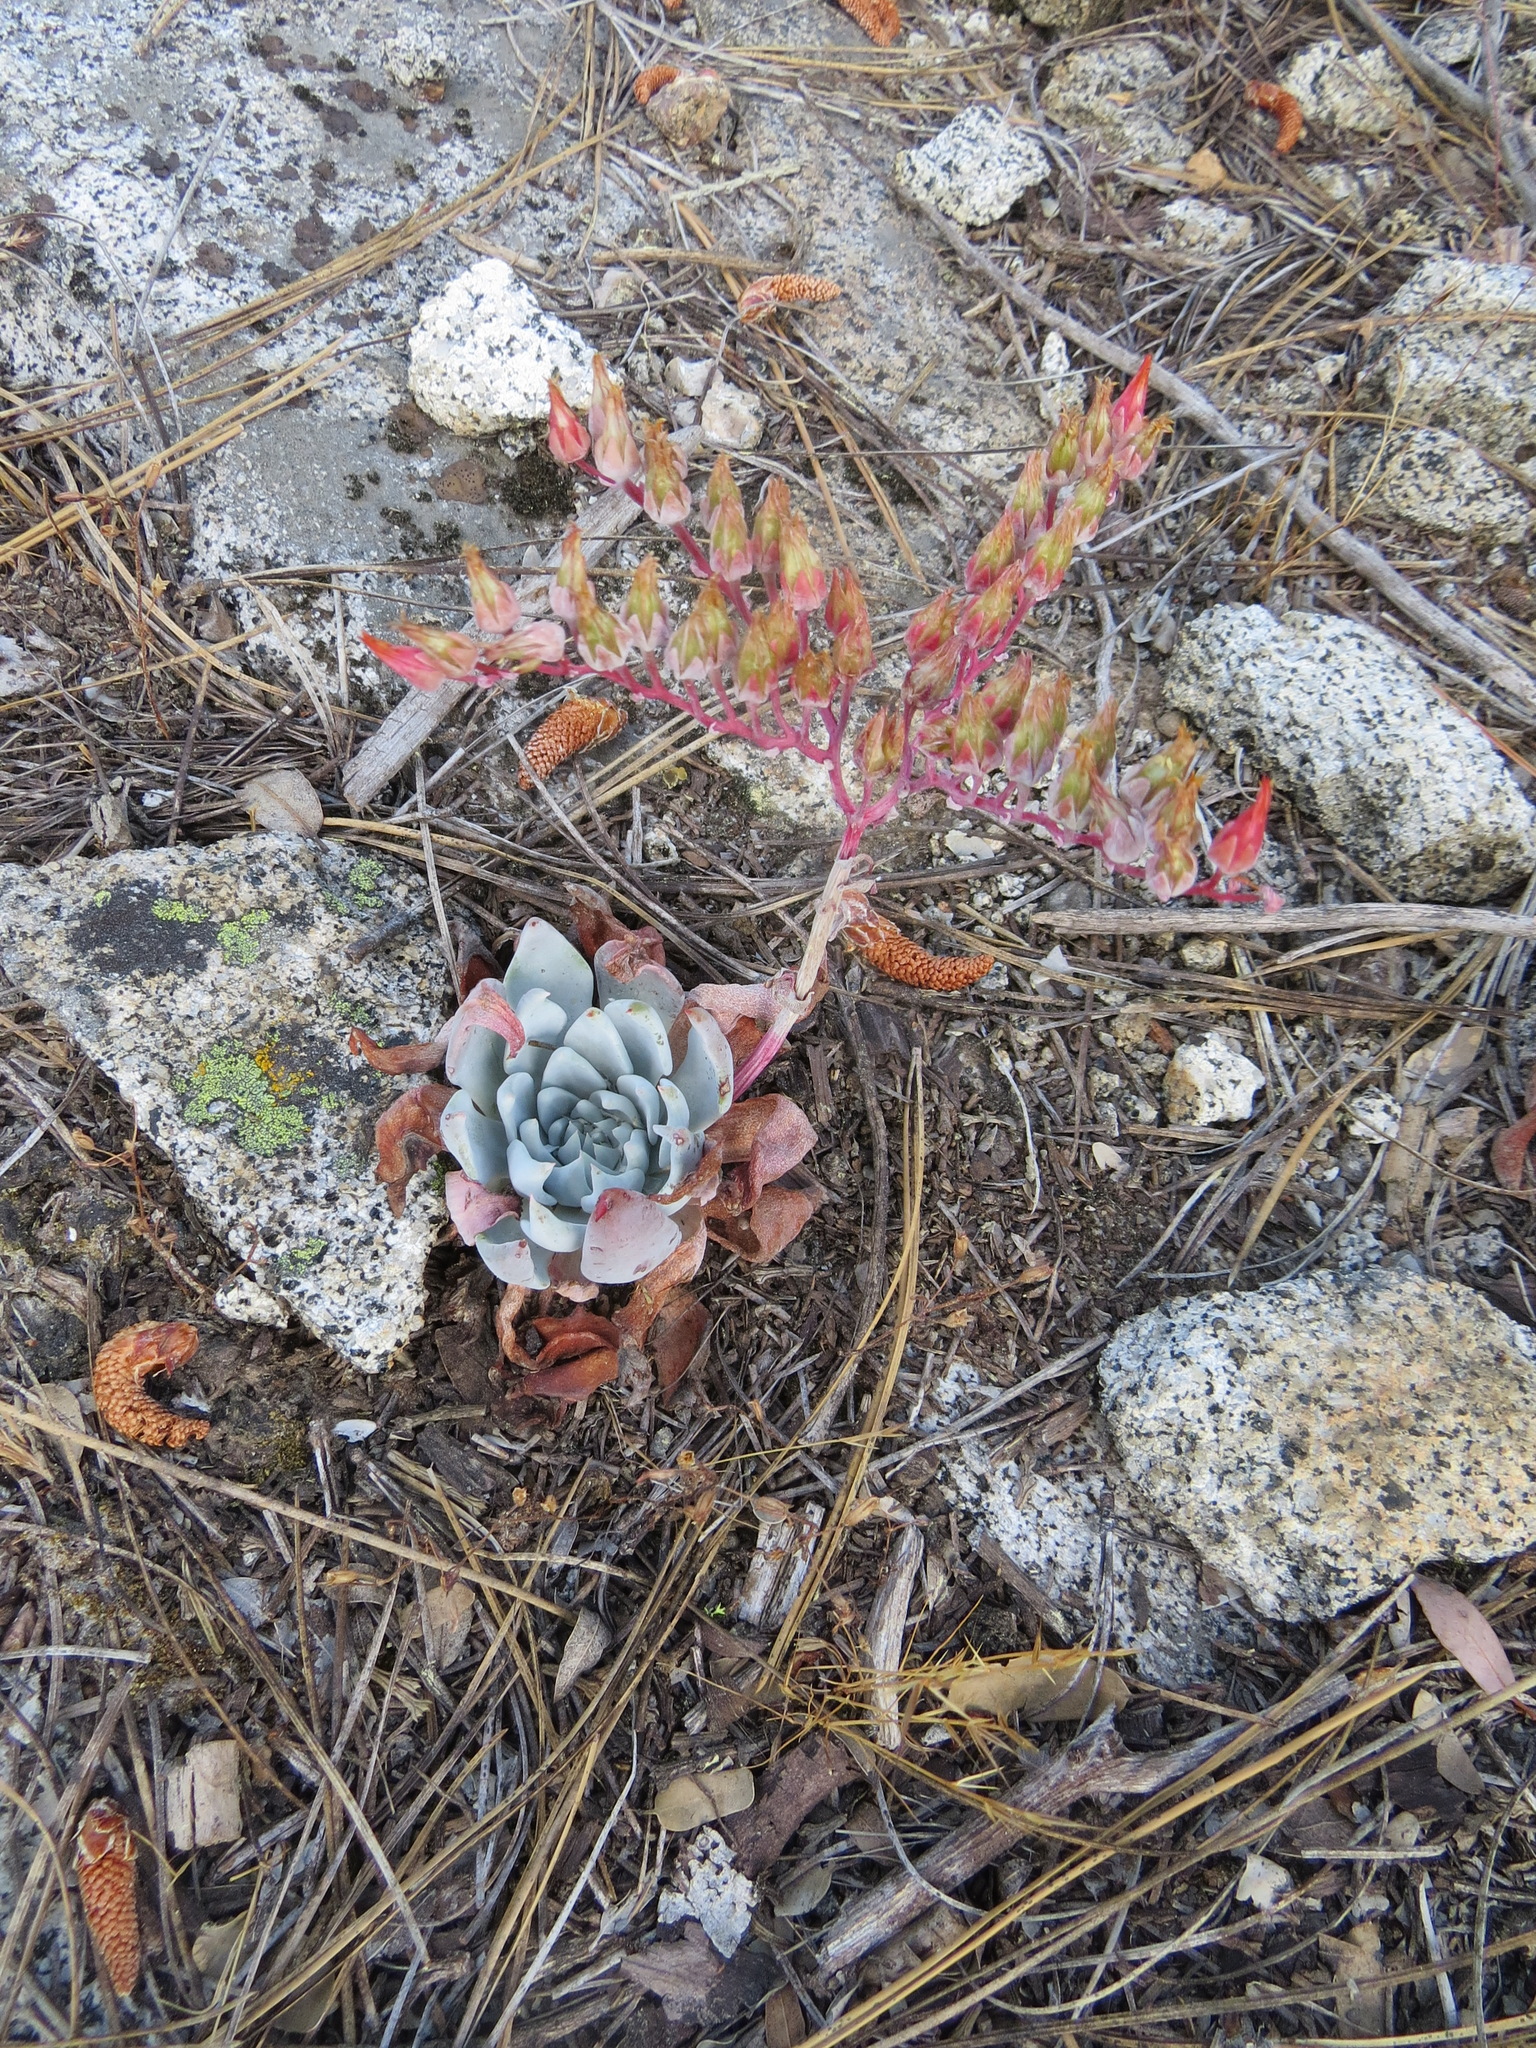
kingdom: Plantae
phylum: Tracheophyta
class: Magnoliopsida
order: Saxifragales
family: Crassulaceae
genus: Dudleya
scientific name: Dudleya cymosa
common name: Canyon dudleya
